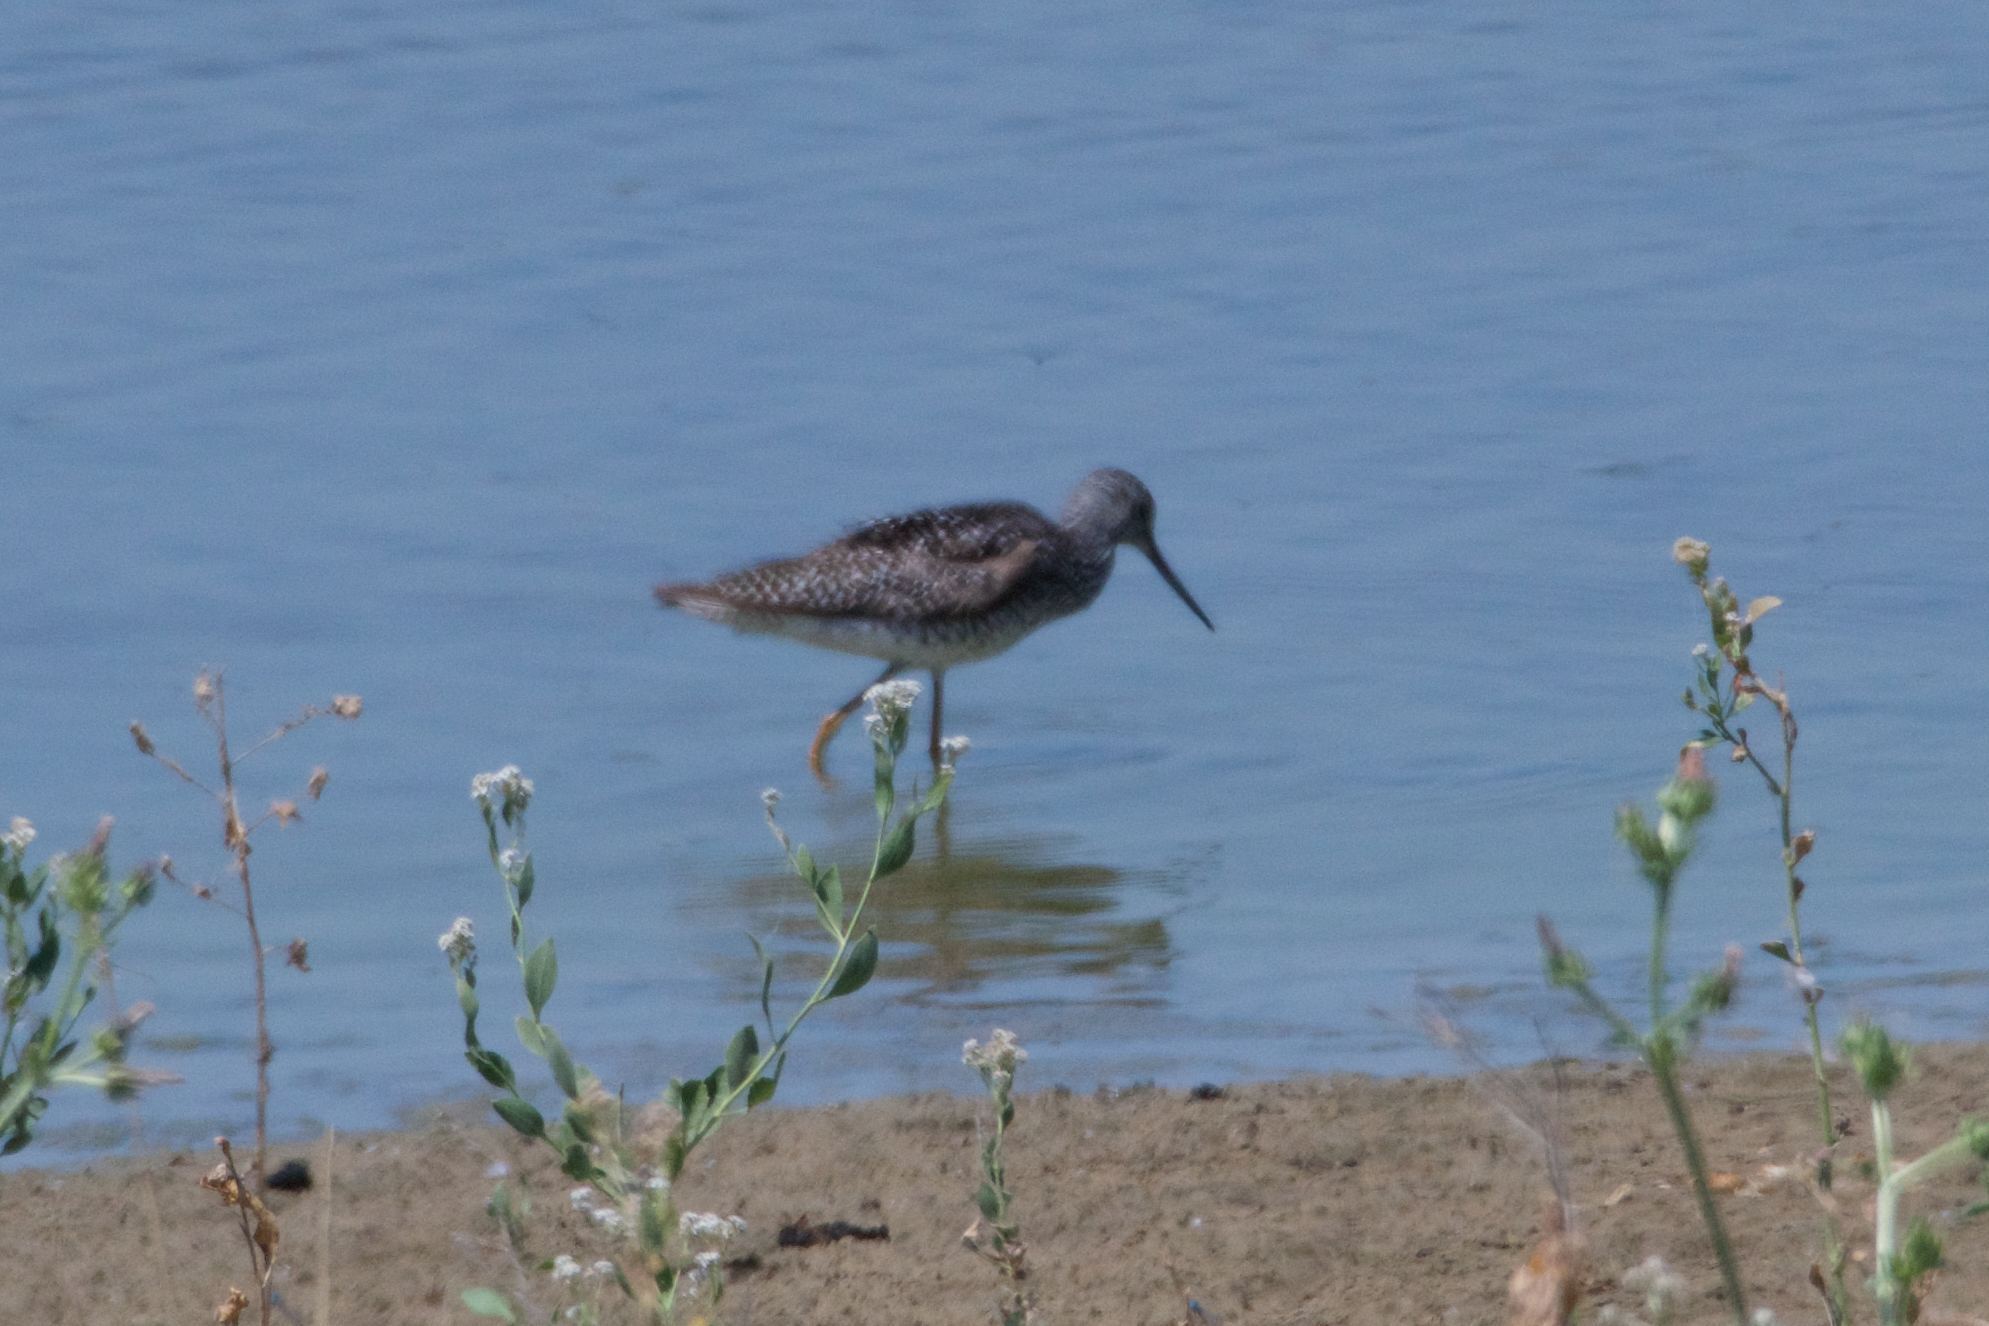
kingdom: Animalia
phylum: Chordata
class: Aves
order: Charadriiformes
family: Scolopacidae
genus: Tringa
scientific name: Tringa melanoleuca
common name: Greater yellowlegs
